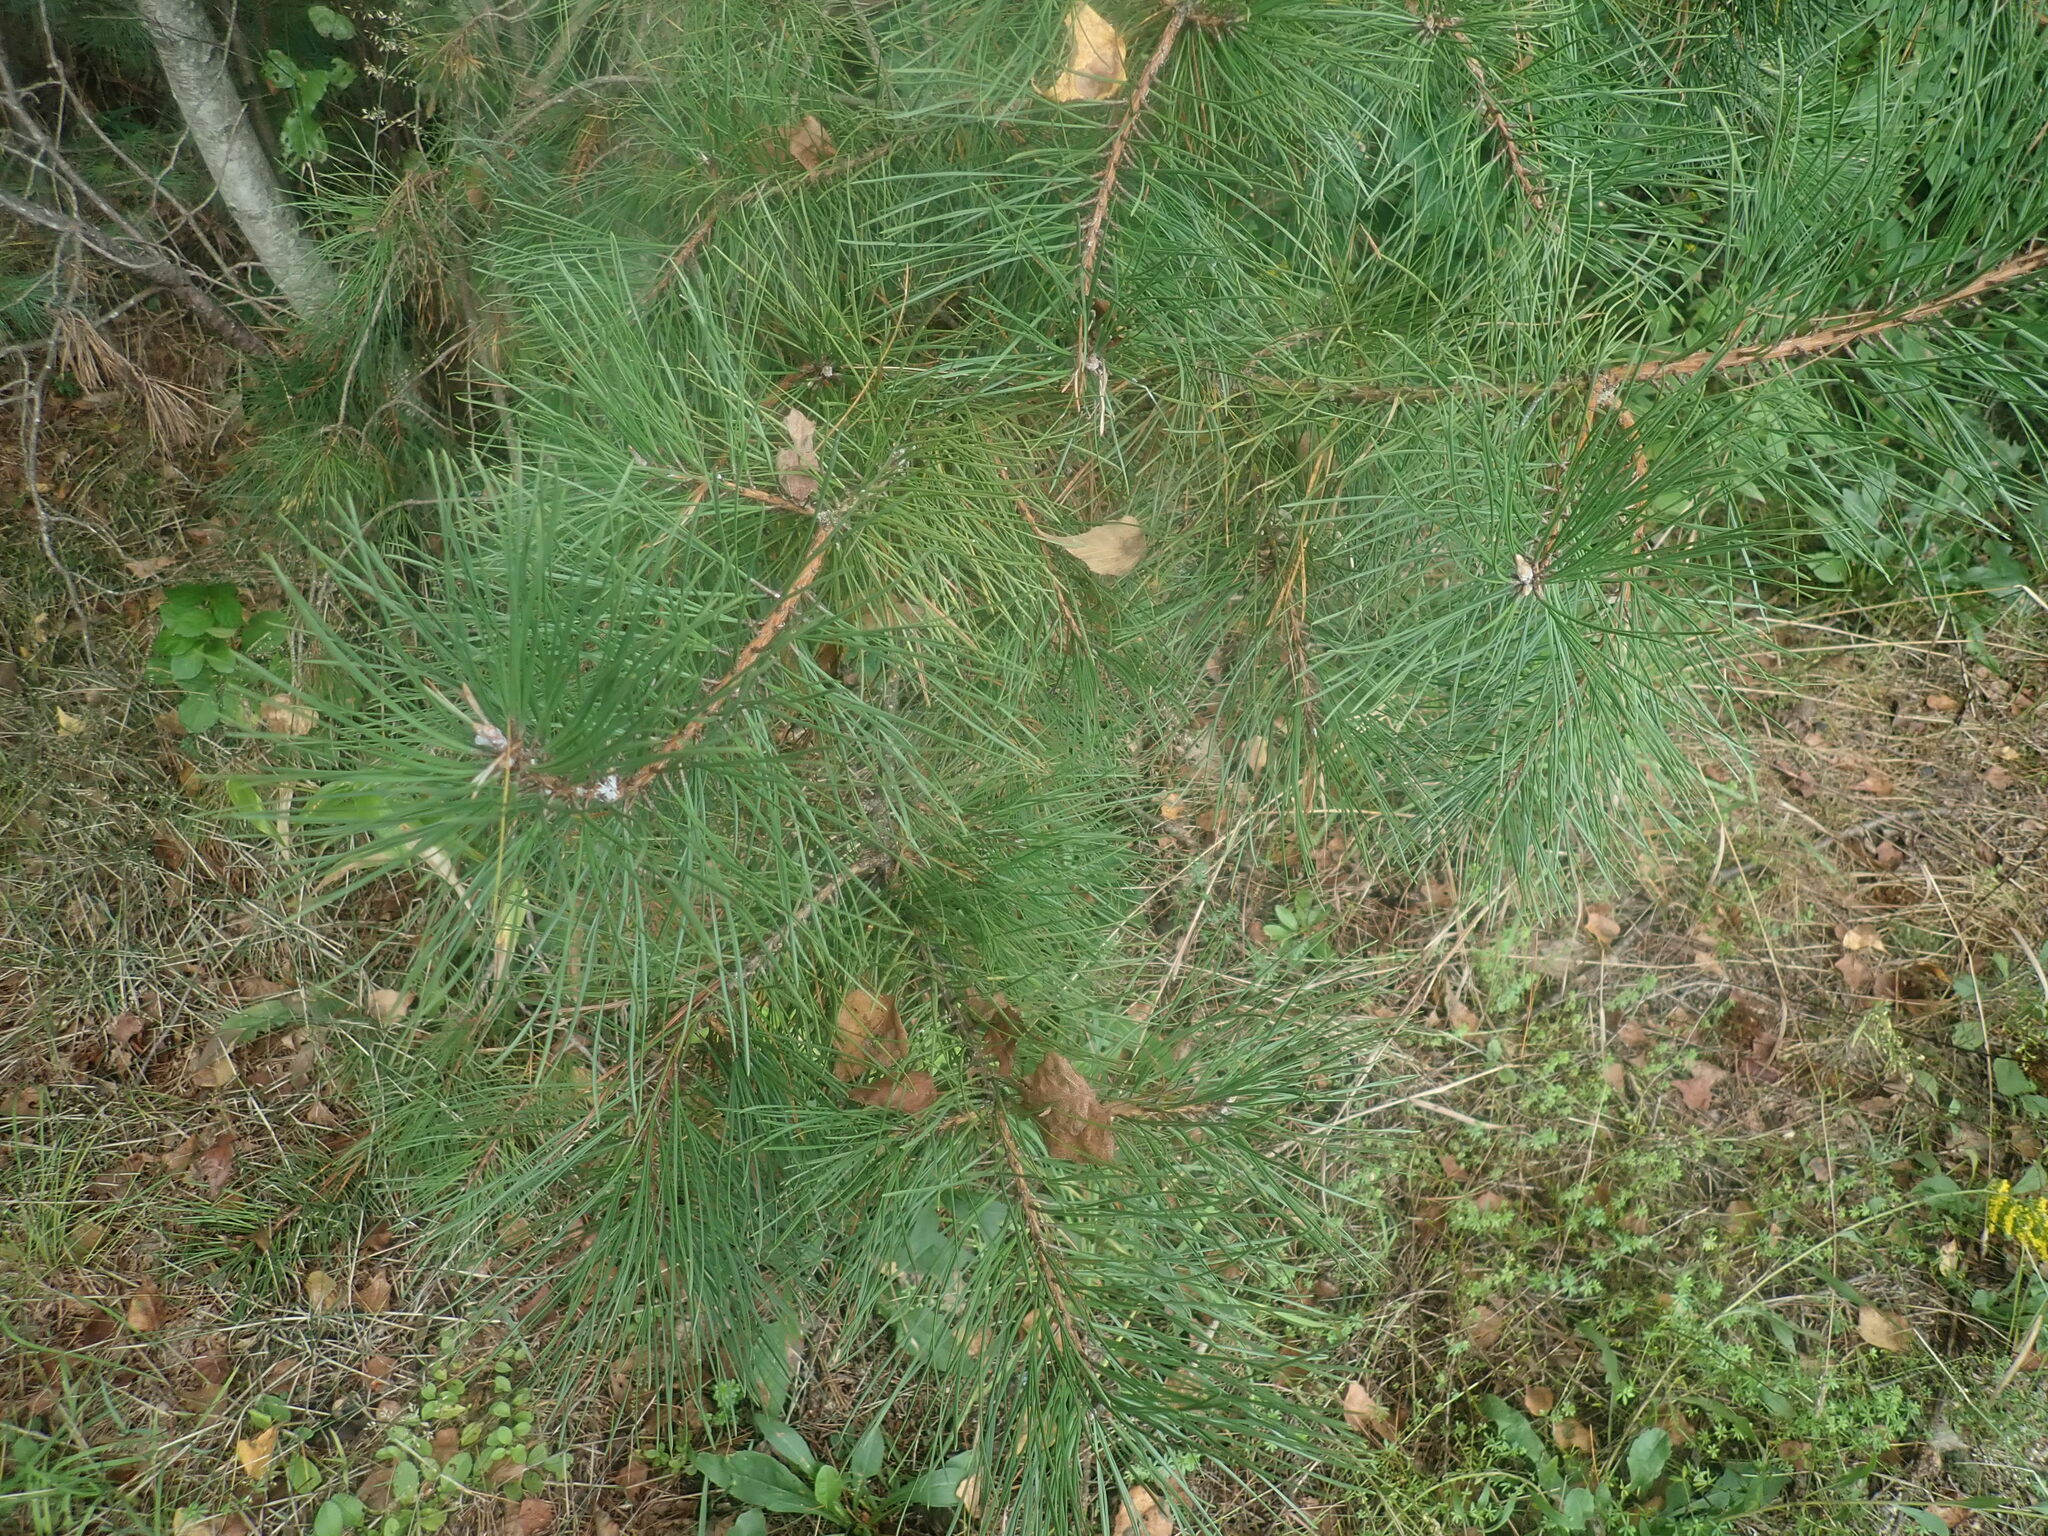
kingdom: Plantae
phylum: Tracheophyta
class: Pinopsida
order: Pinales
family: Pinaceae
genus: Pinus
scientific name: Pinus rigida
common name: Pitch pine
